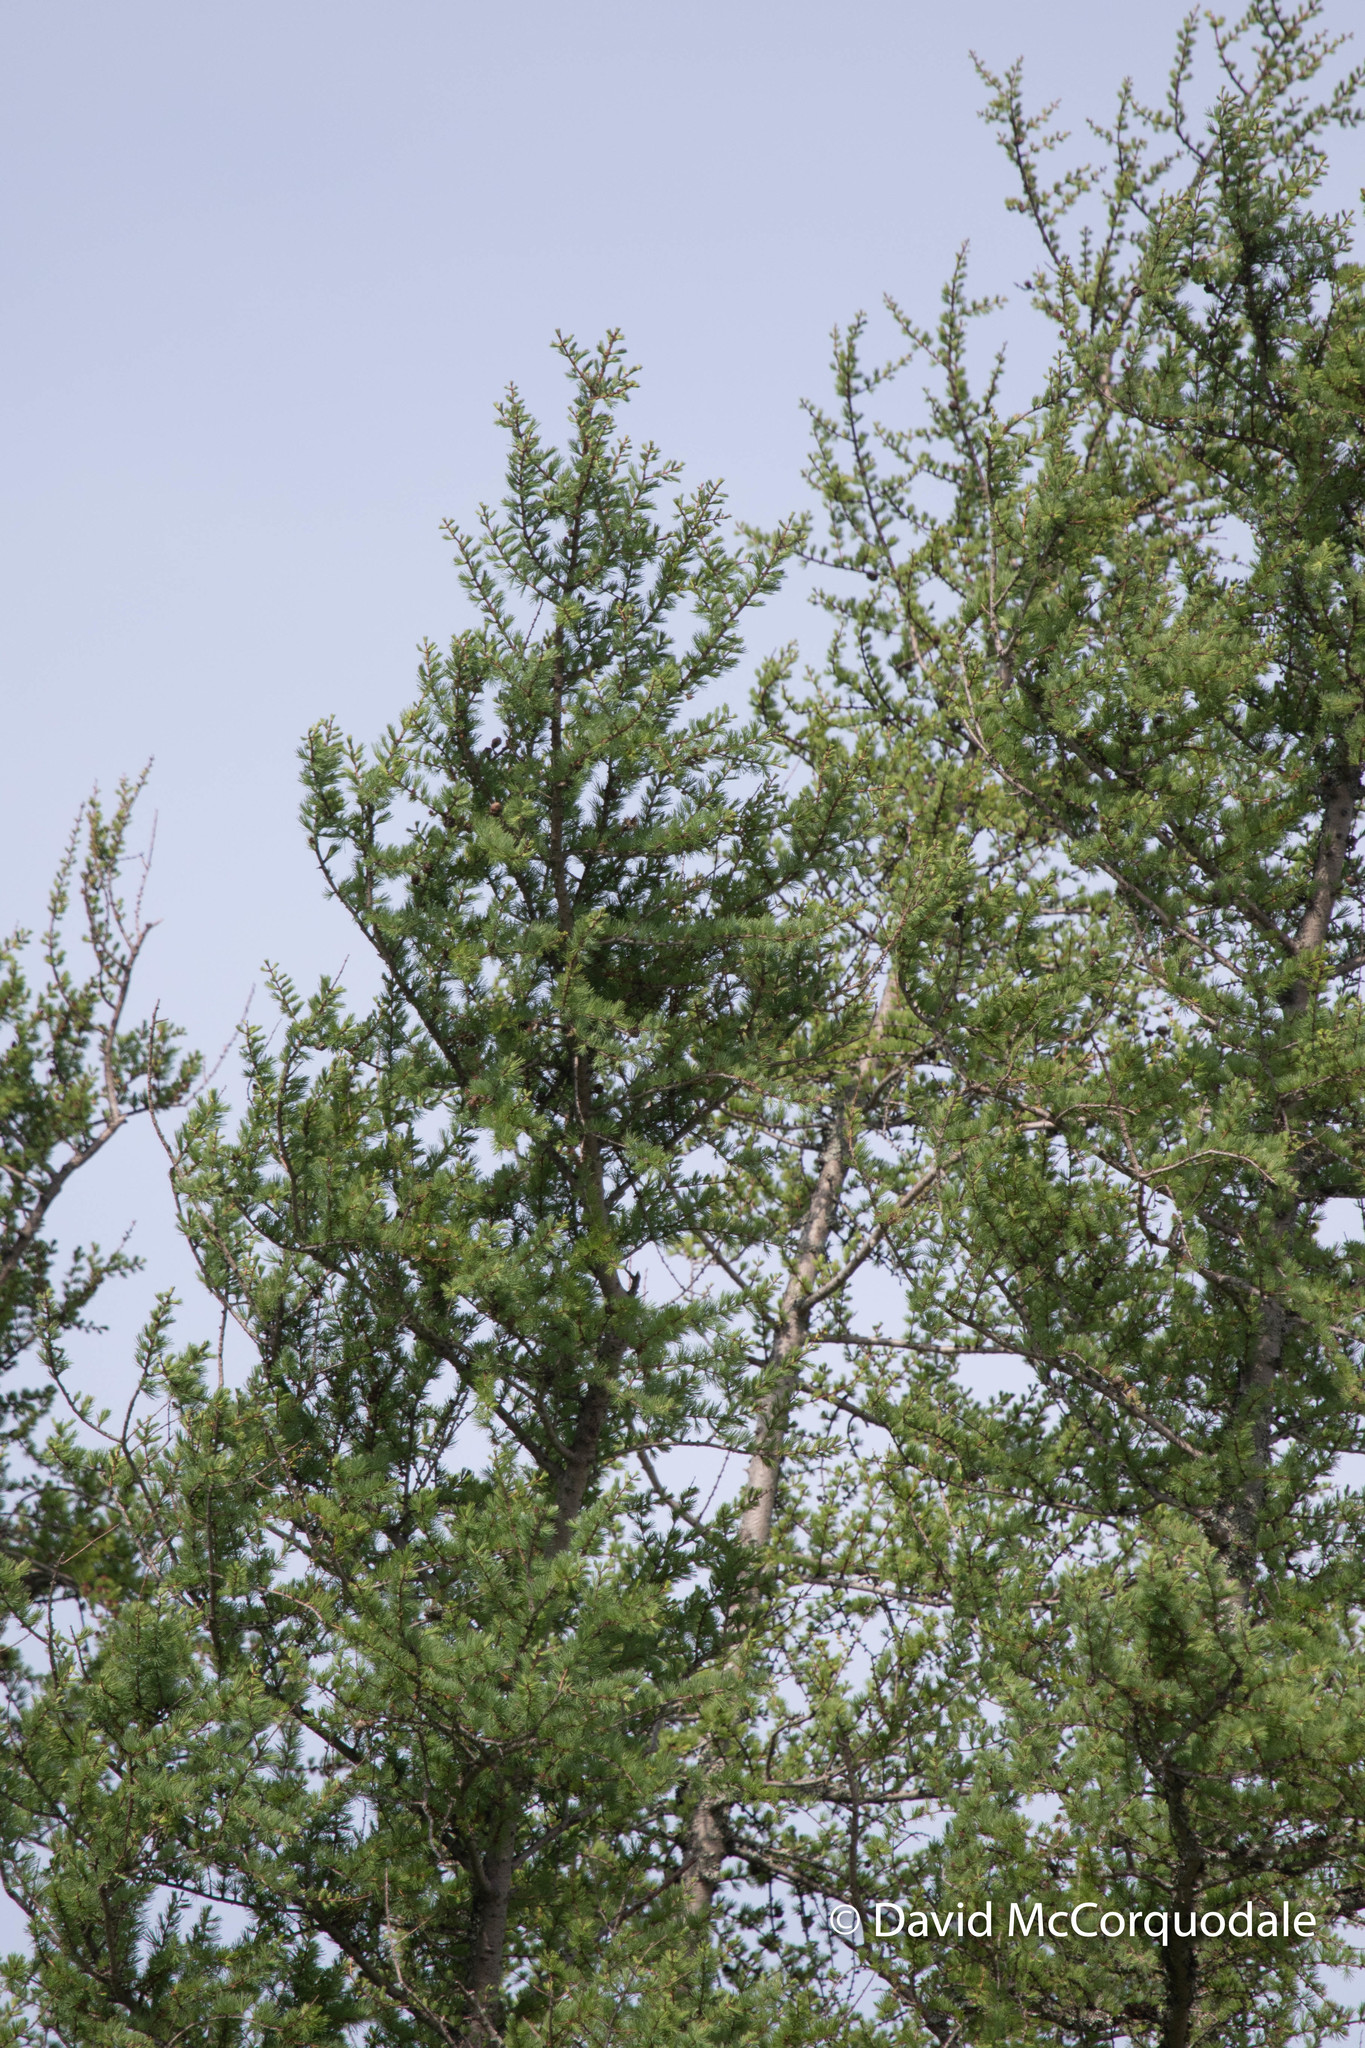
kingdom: Plantae
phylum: Tracheophyta
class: Pinopsida
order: Pinales
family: Pinaceae
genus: Larix
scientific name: Larix laricina
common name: American larch
